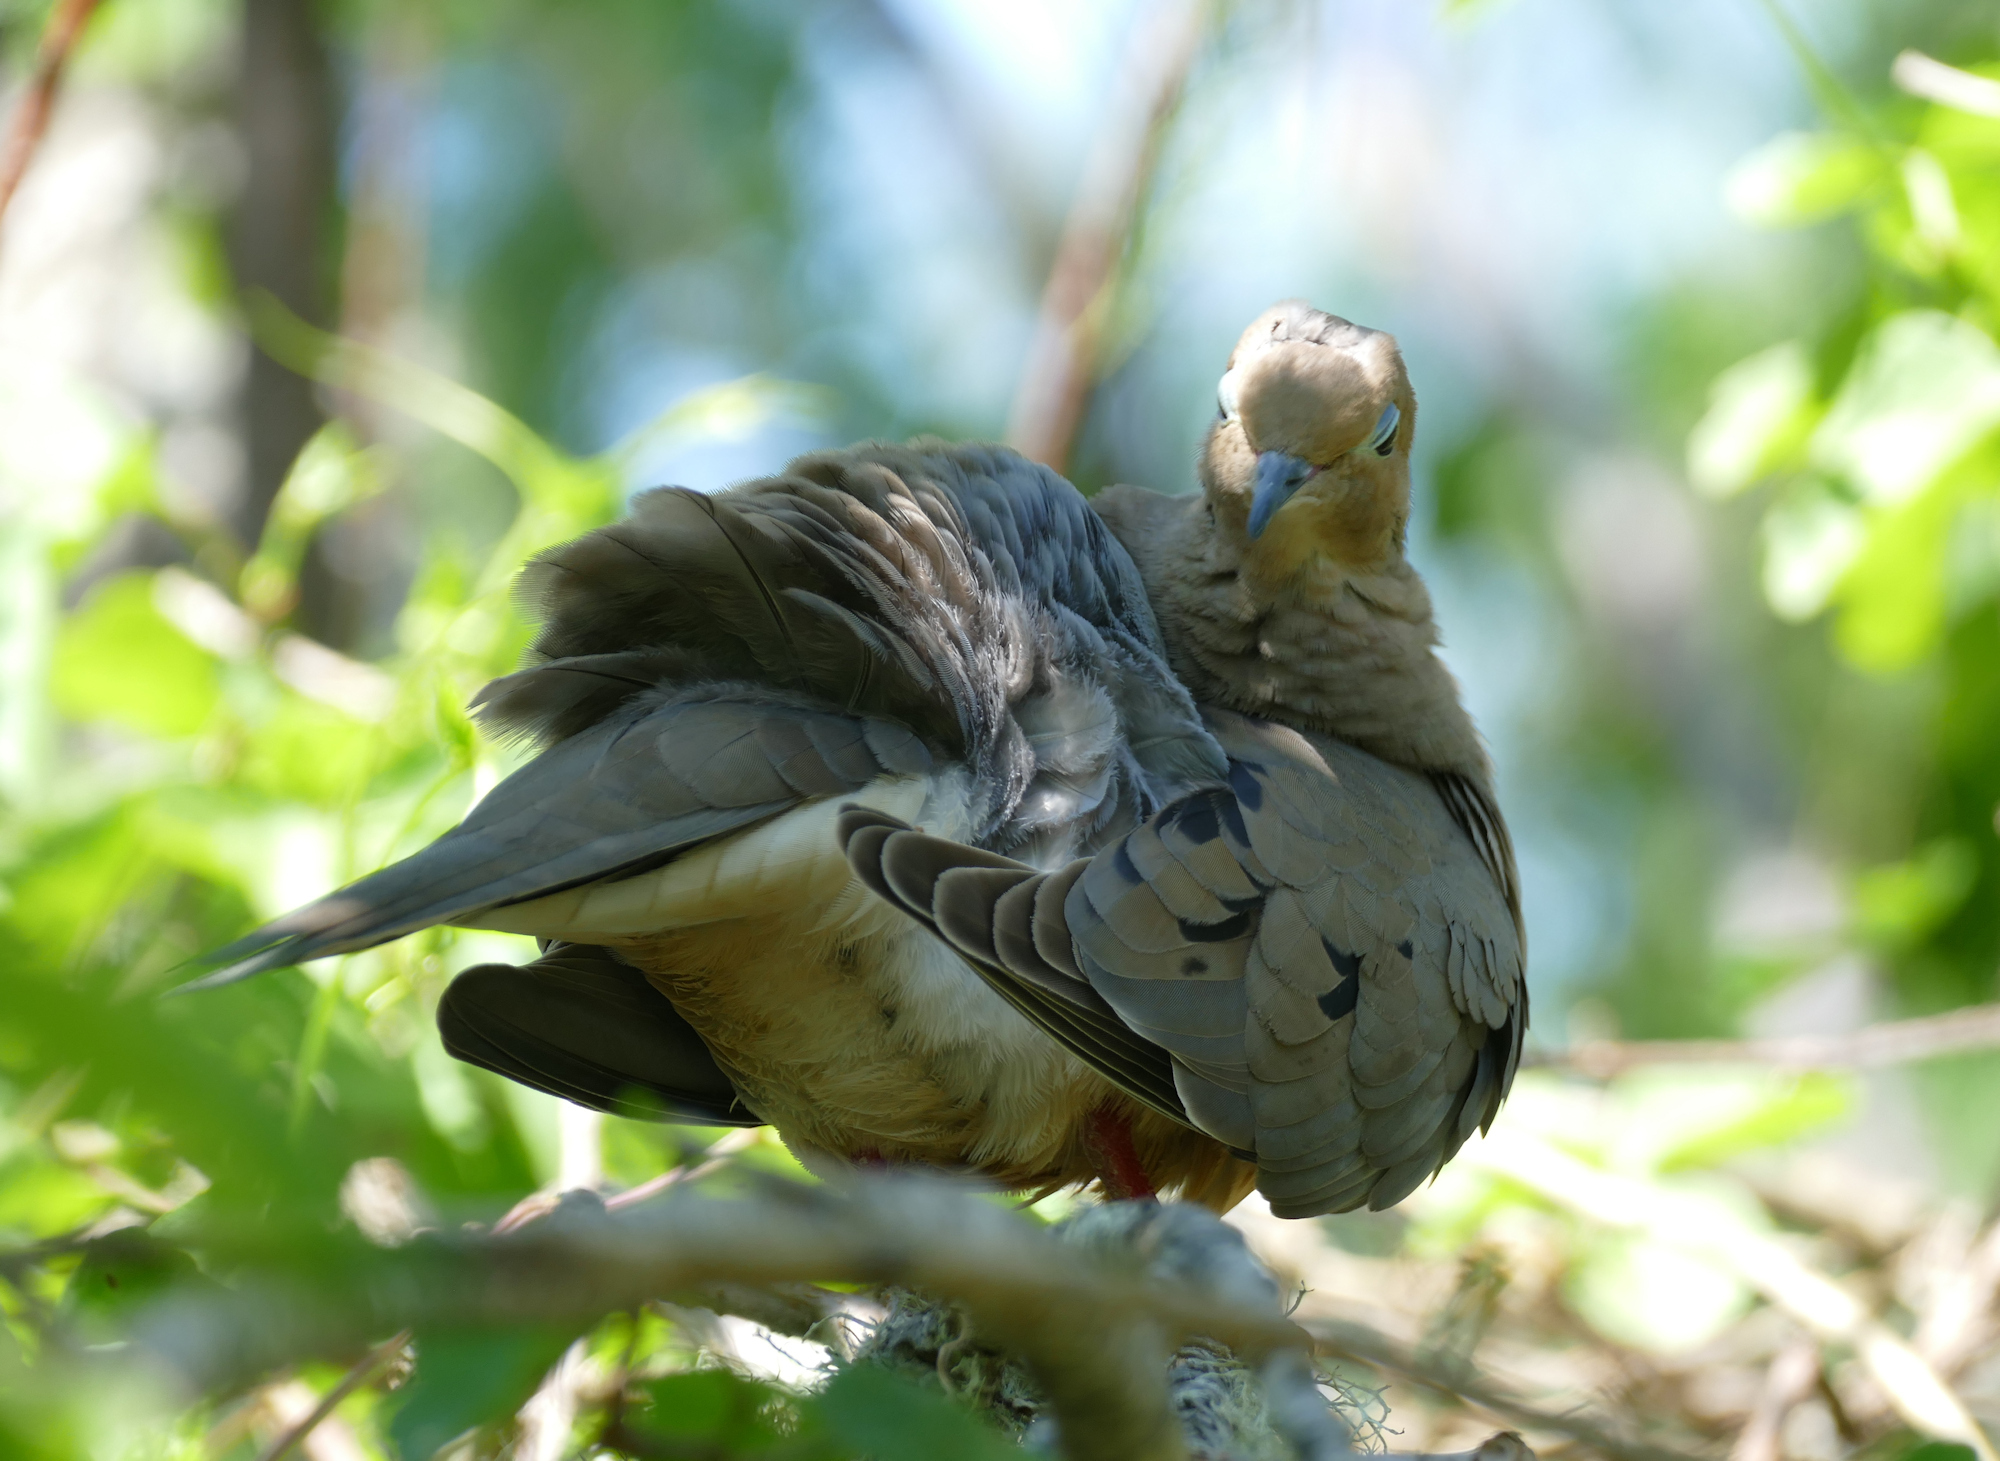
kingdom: Animalia
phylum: Chordata
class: Aves
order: Columbiformes
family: Columbidae
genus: Zenaida
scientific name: Zenaida macroura
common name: Mourning dove
